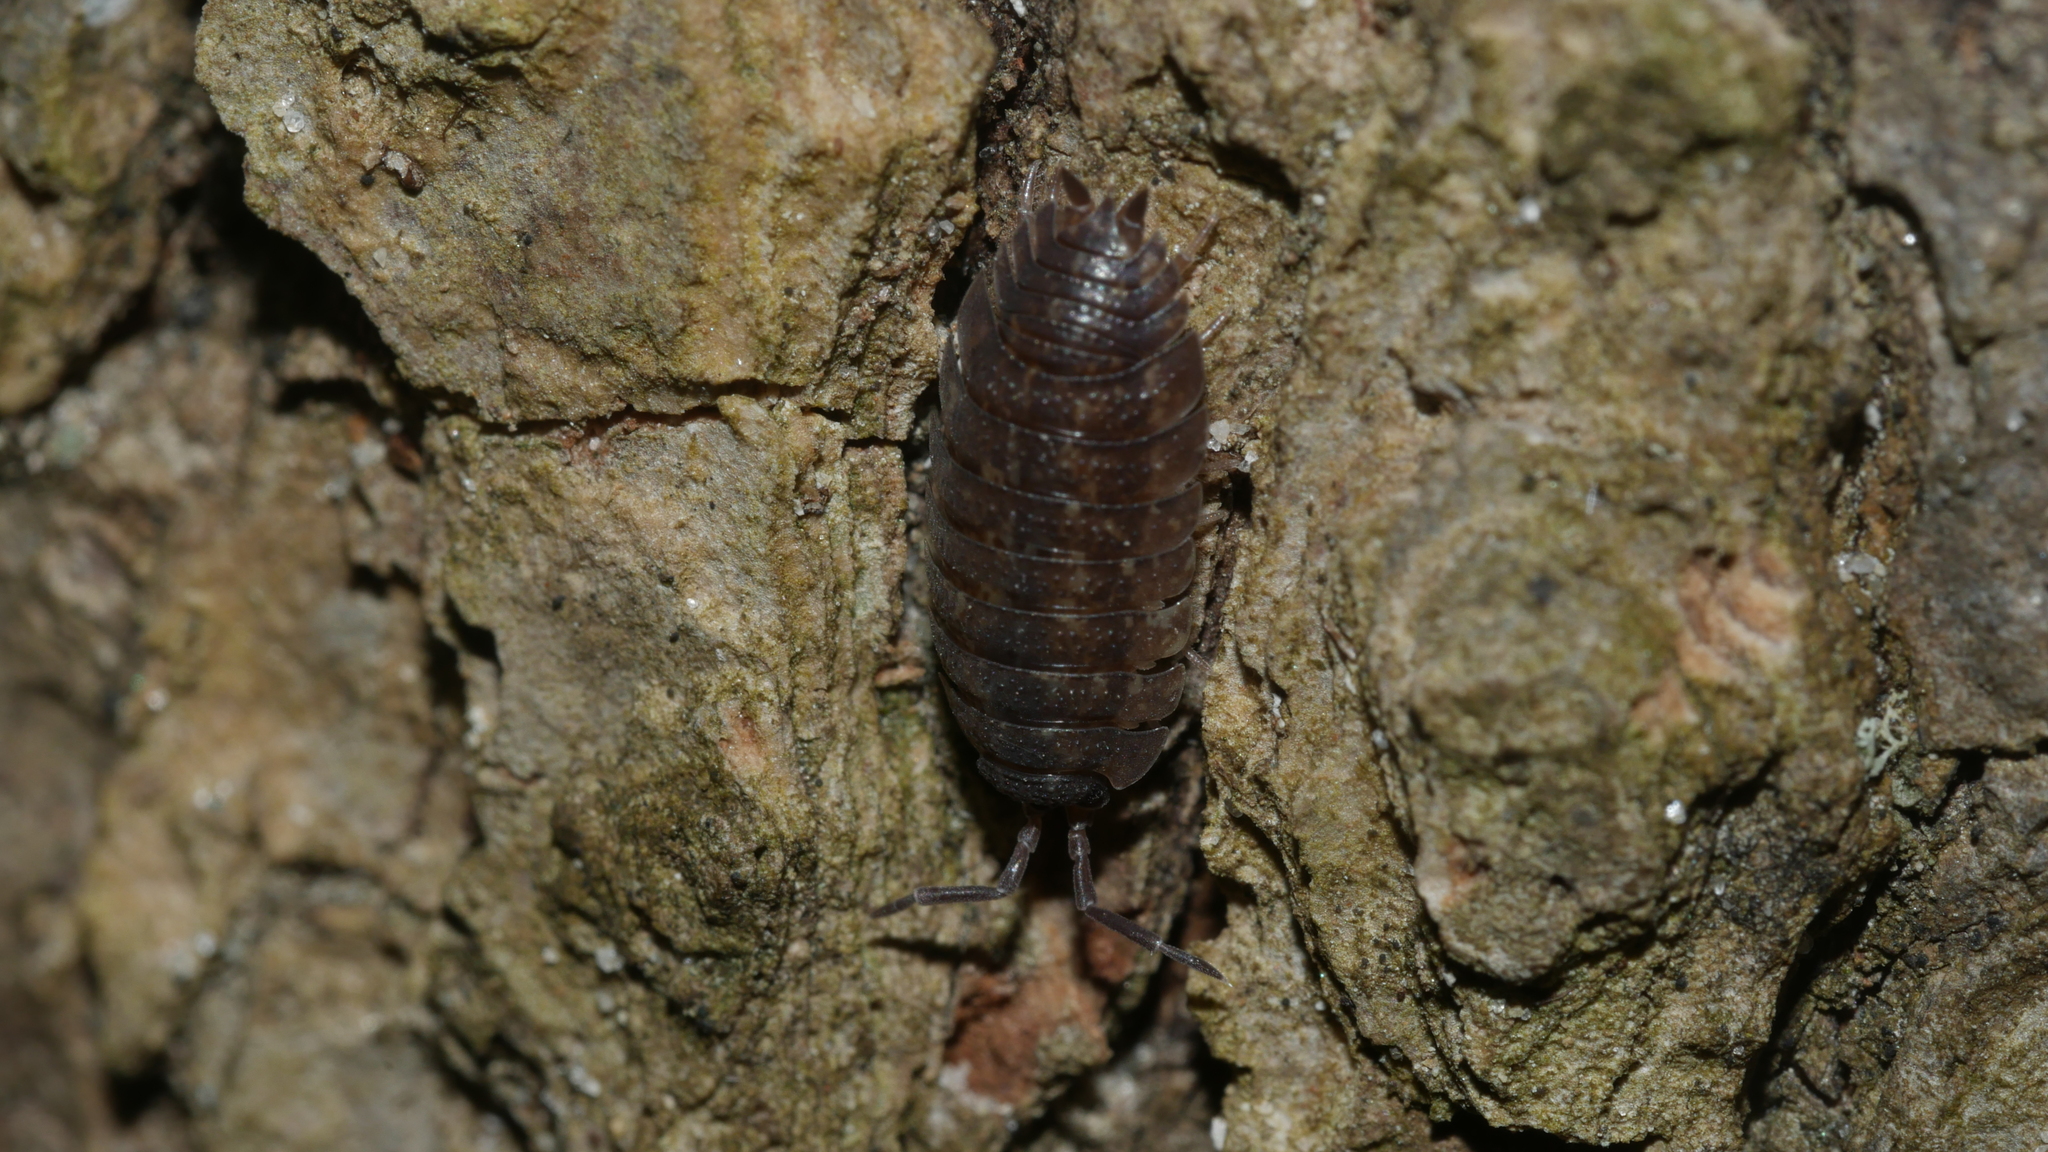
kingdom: Animalia
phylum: Arthropoda
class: Malacostraca
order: Isopoda
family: Porcellionidae
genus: Porcellio
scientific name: Porcellio scaber
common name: Common rough woodlouse
